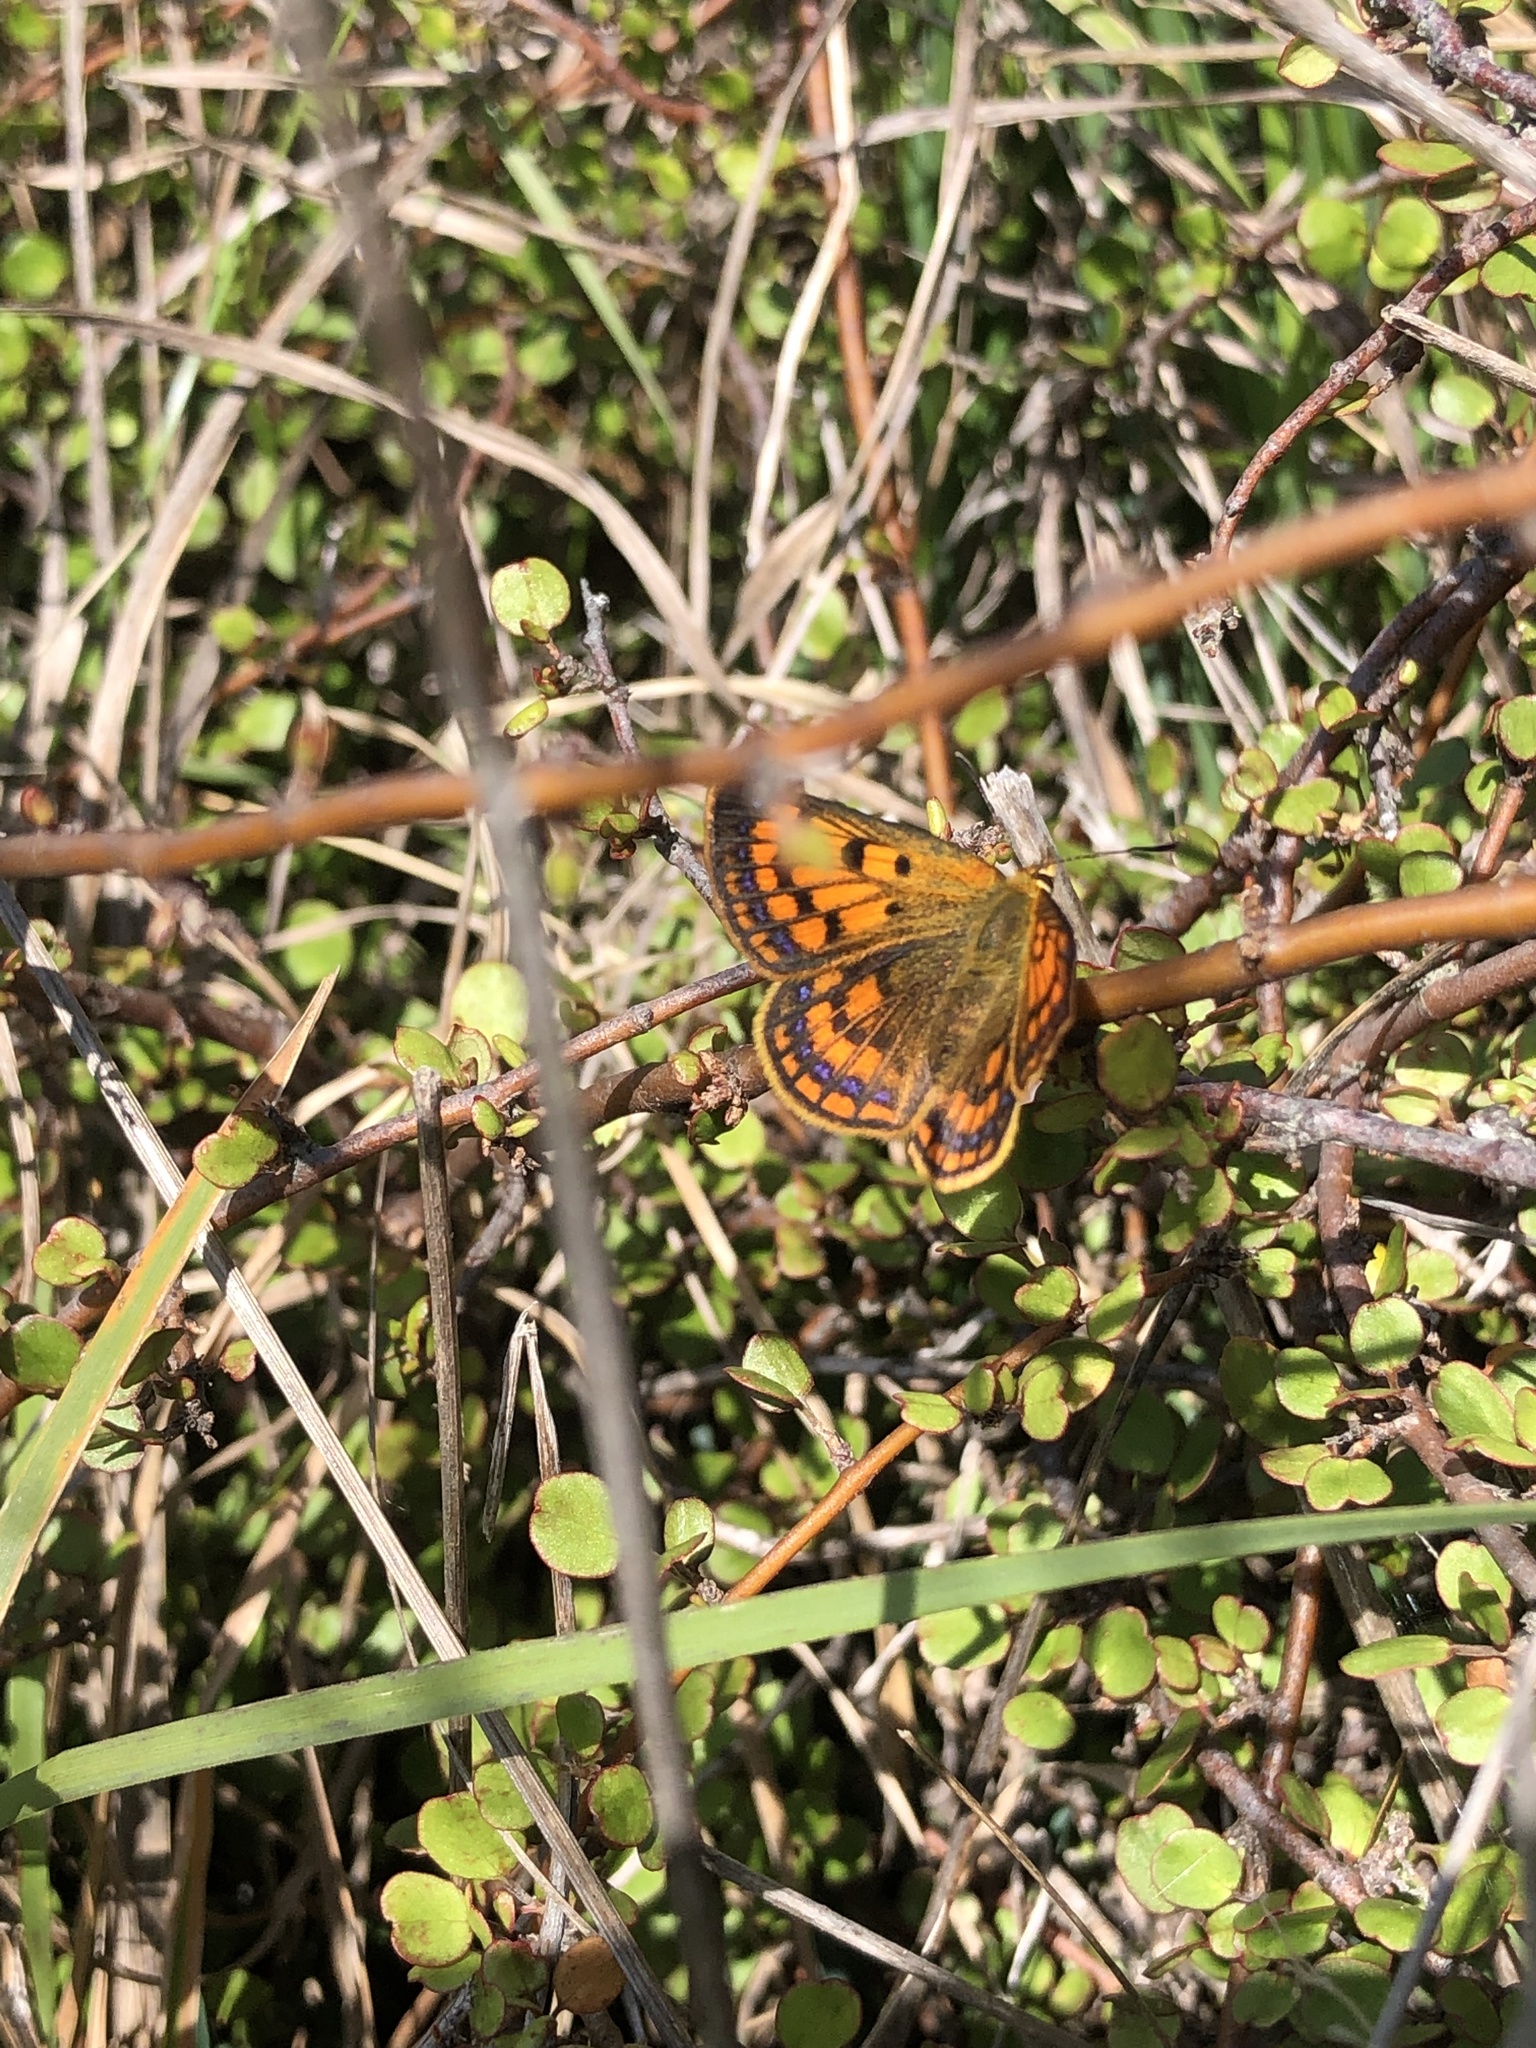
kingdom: Animalia
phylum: Arthropoda
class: Insecta
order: Lepidoptera
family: Lycaenidae
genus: Lycaena
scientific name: Lycaena
